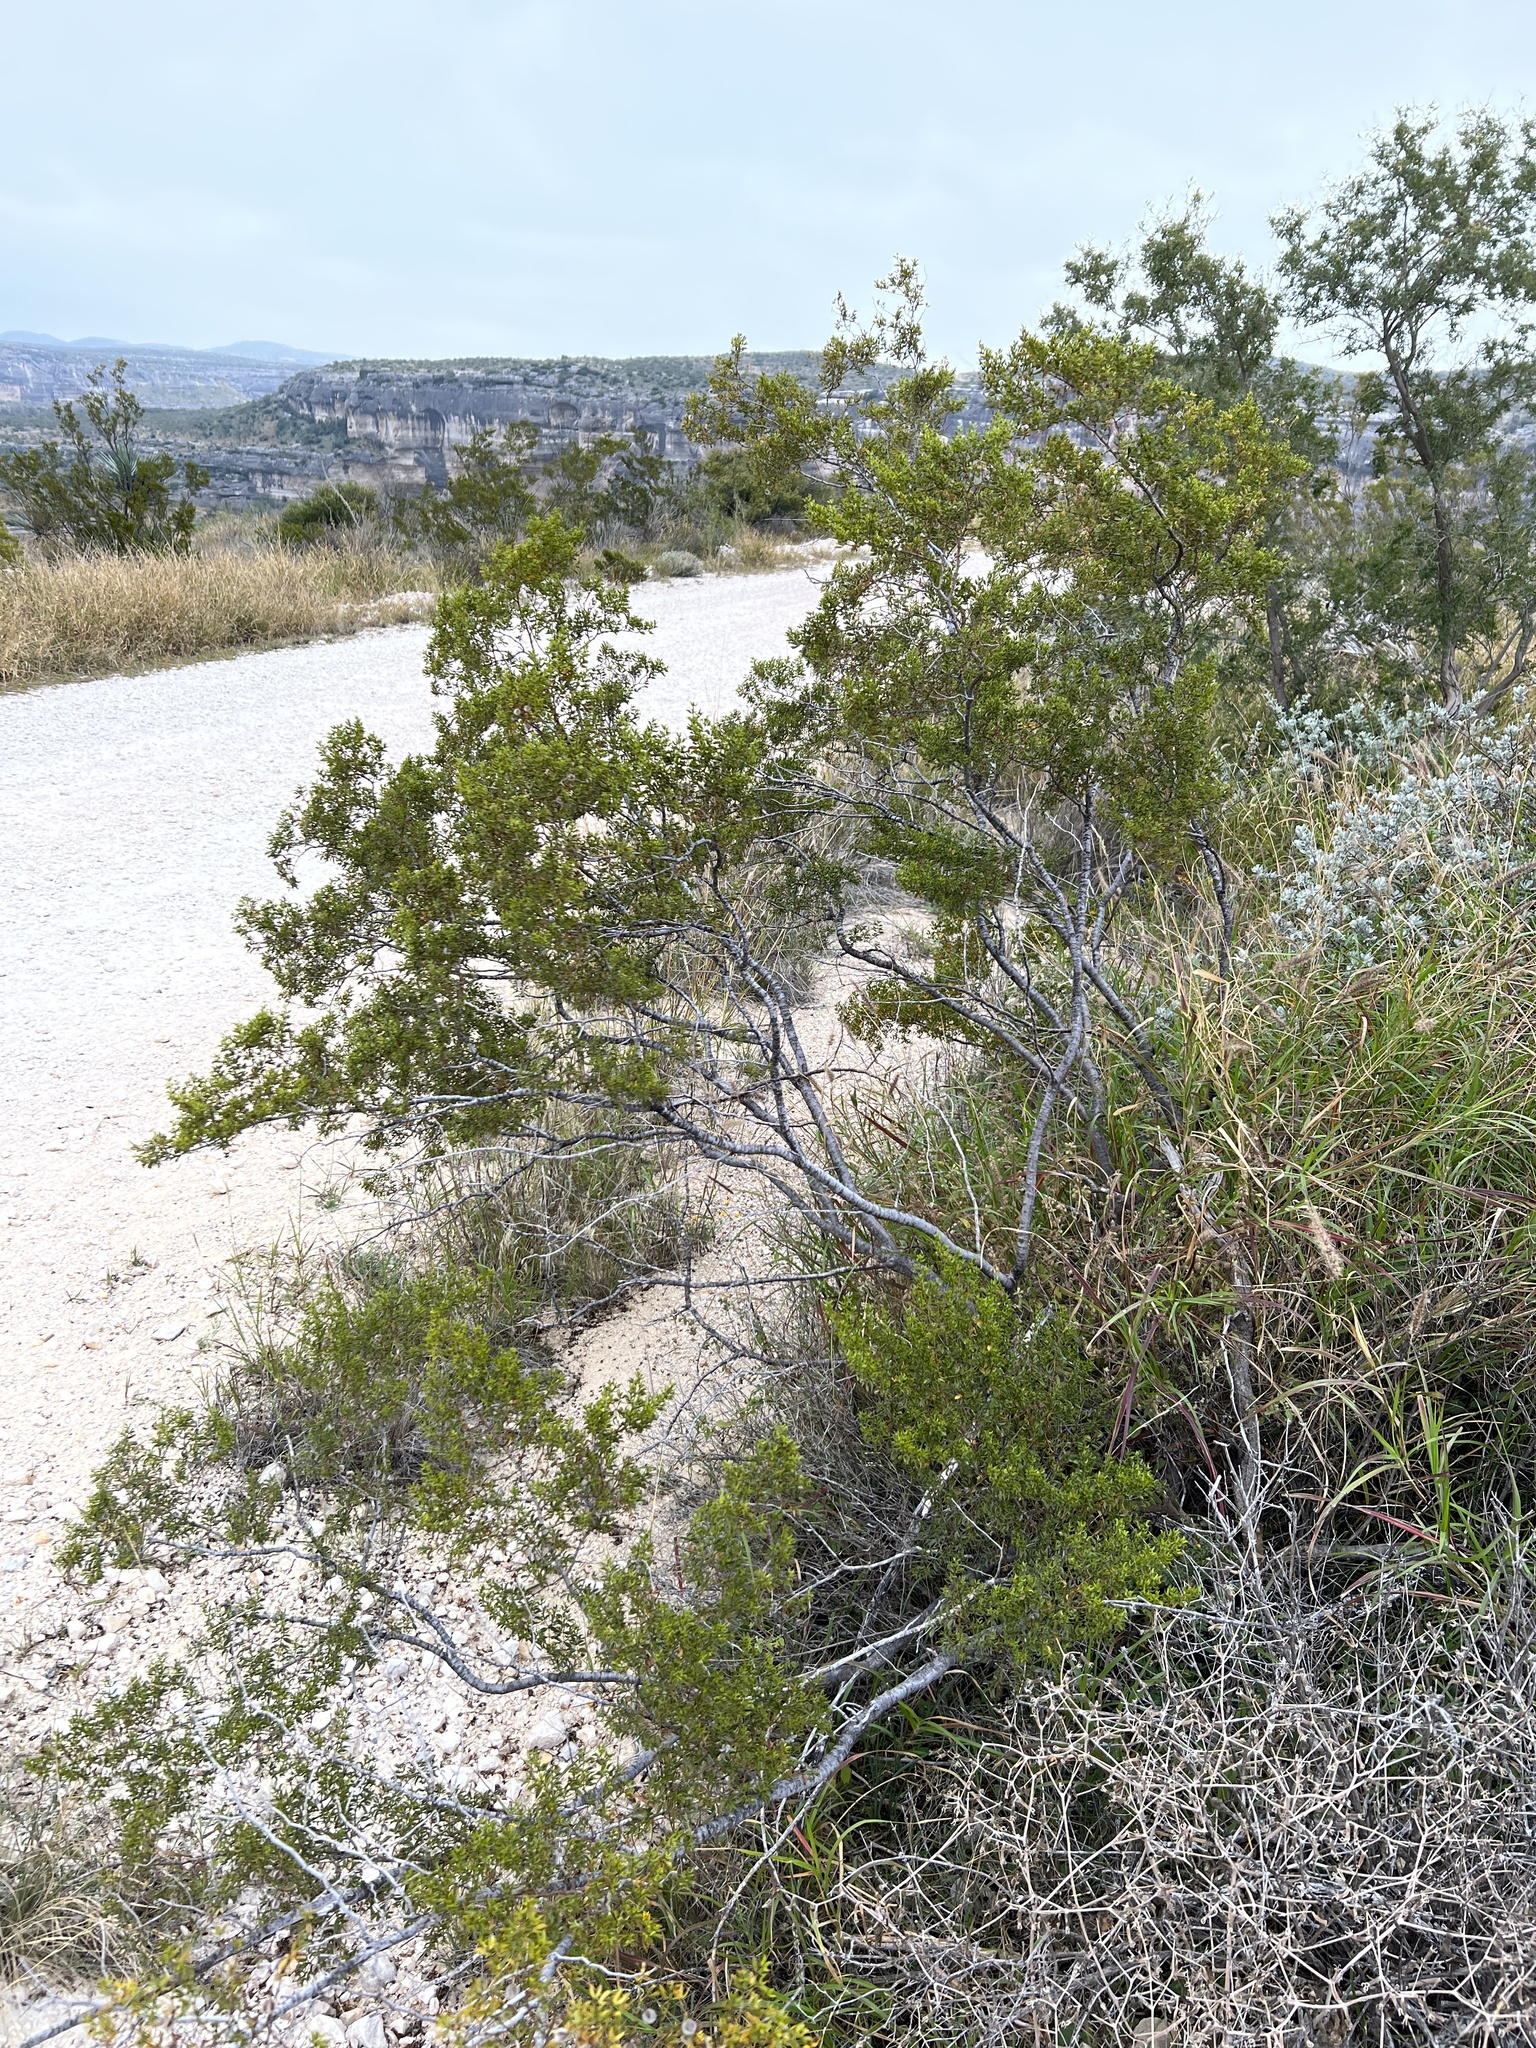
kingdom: Plantae
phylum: Tracheophyta
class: Magnoliopsida
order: Zygophyllales
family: Zygophyllaceae
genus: Larrea
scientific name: Larrea tridentata
